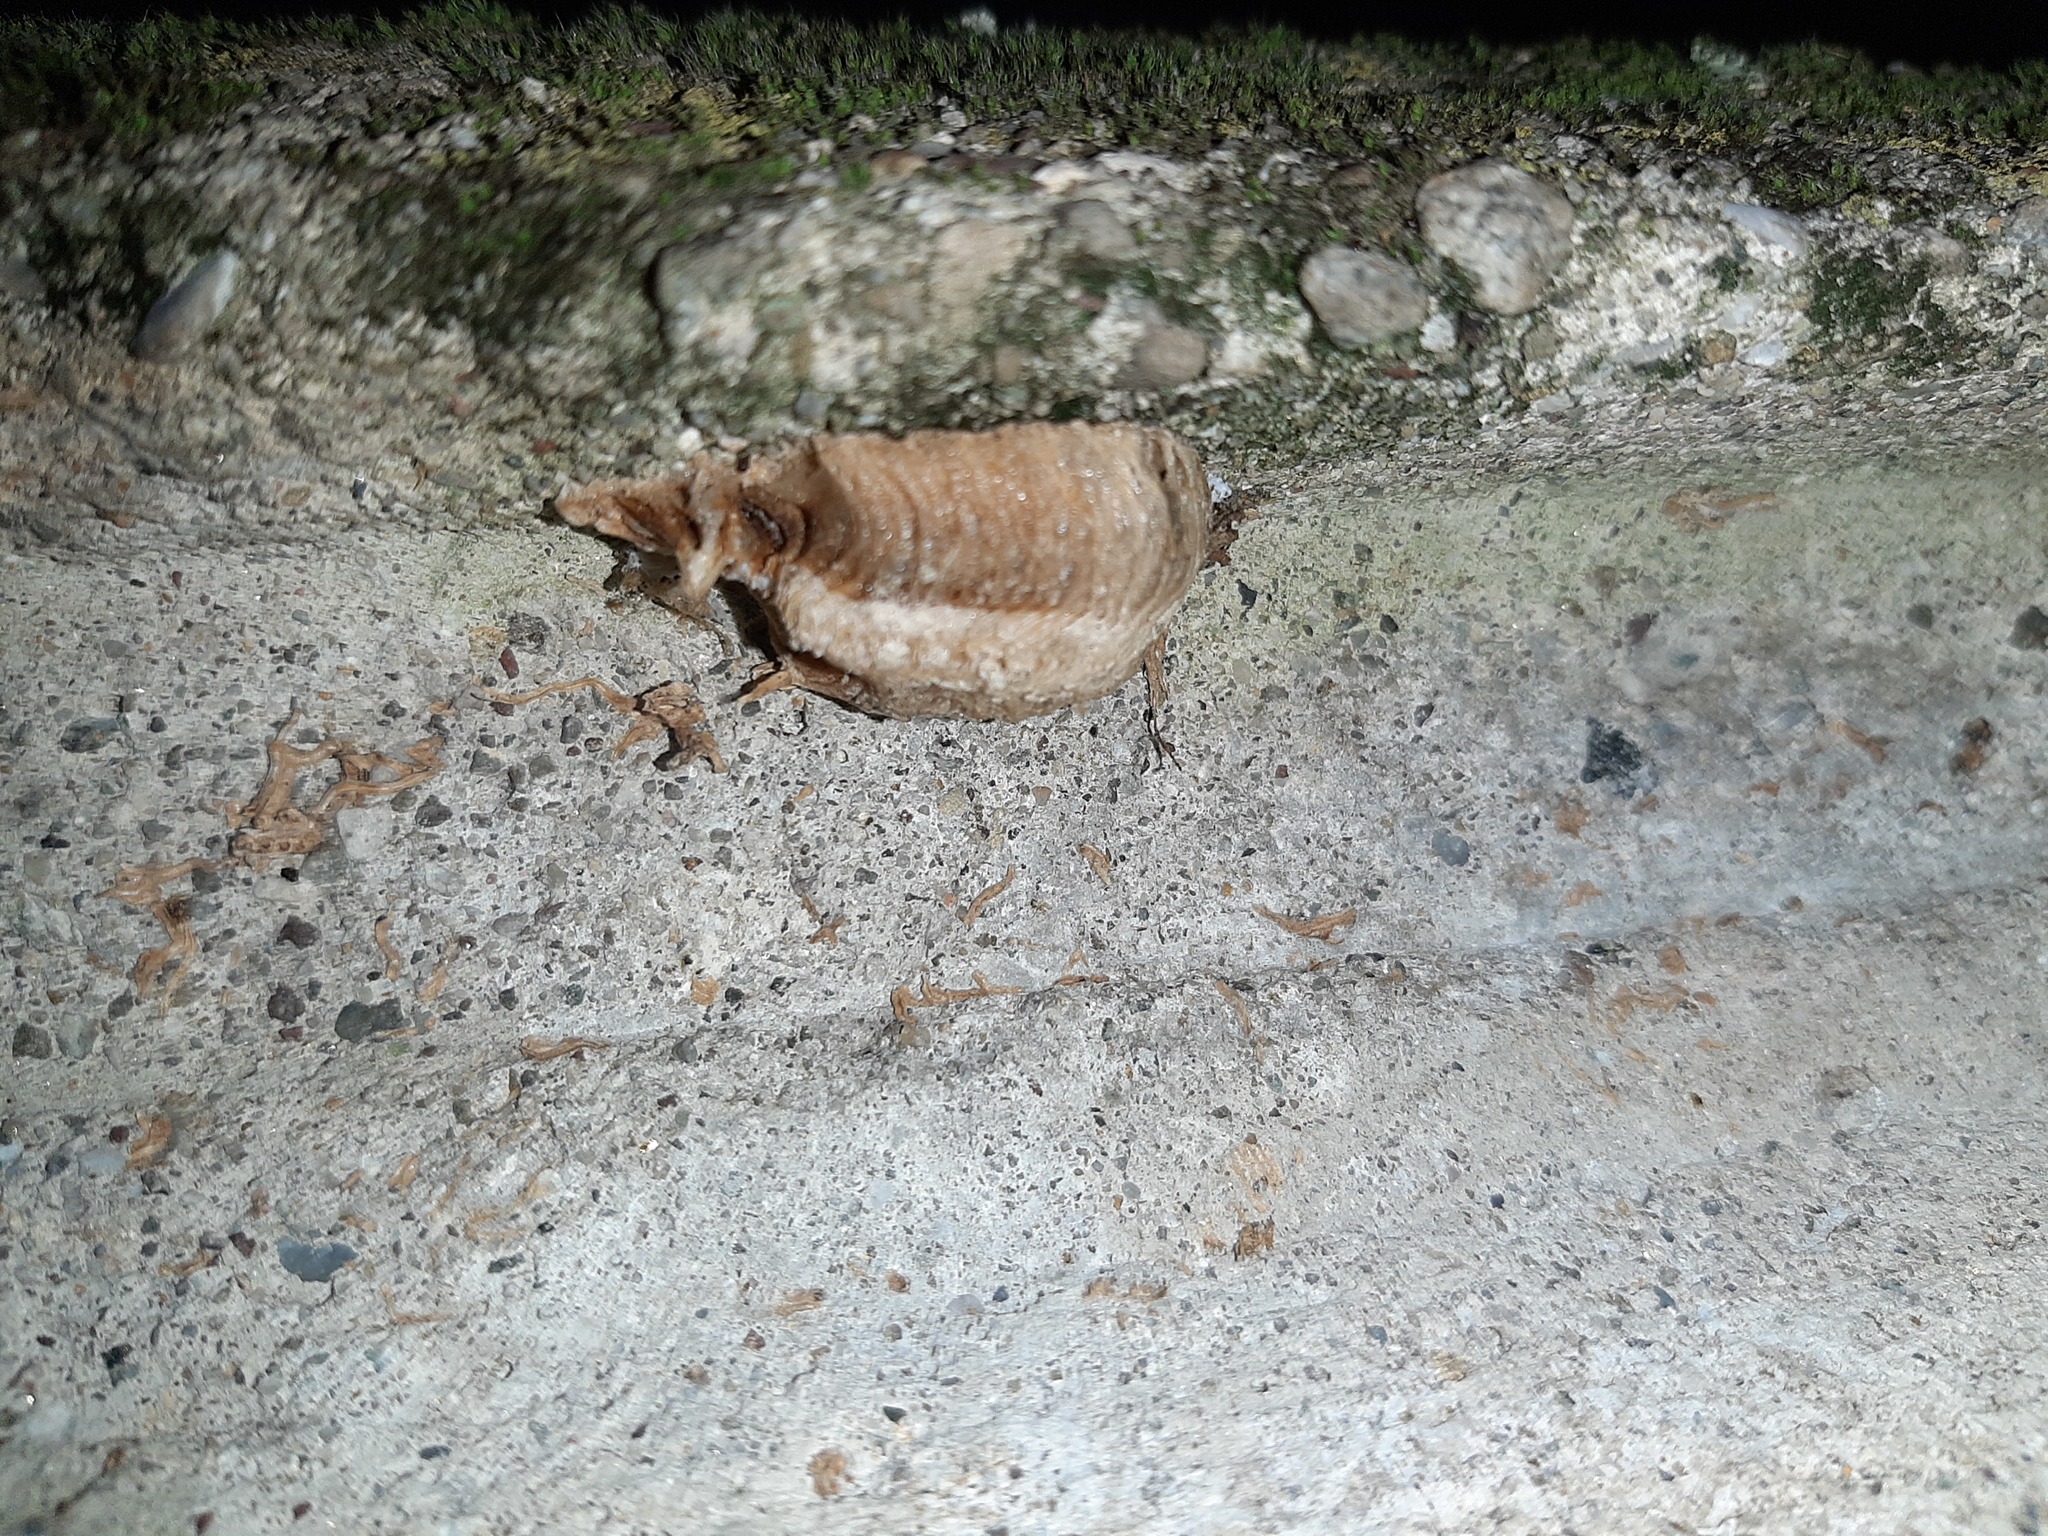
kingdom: Animalia
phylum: Arthropoda
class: Insecta
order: Mantodea
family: Mantidae
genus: Mantis
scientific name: Mantis religiosa
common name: Praying mantis
